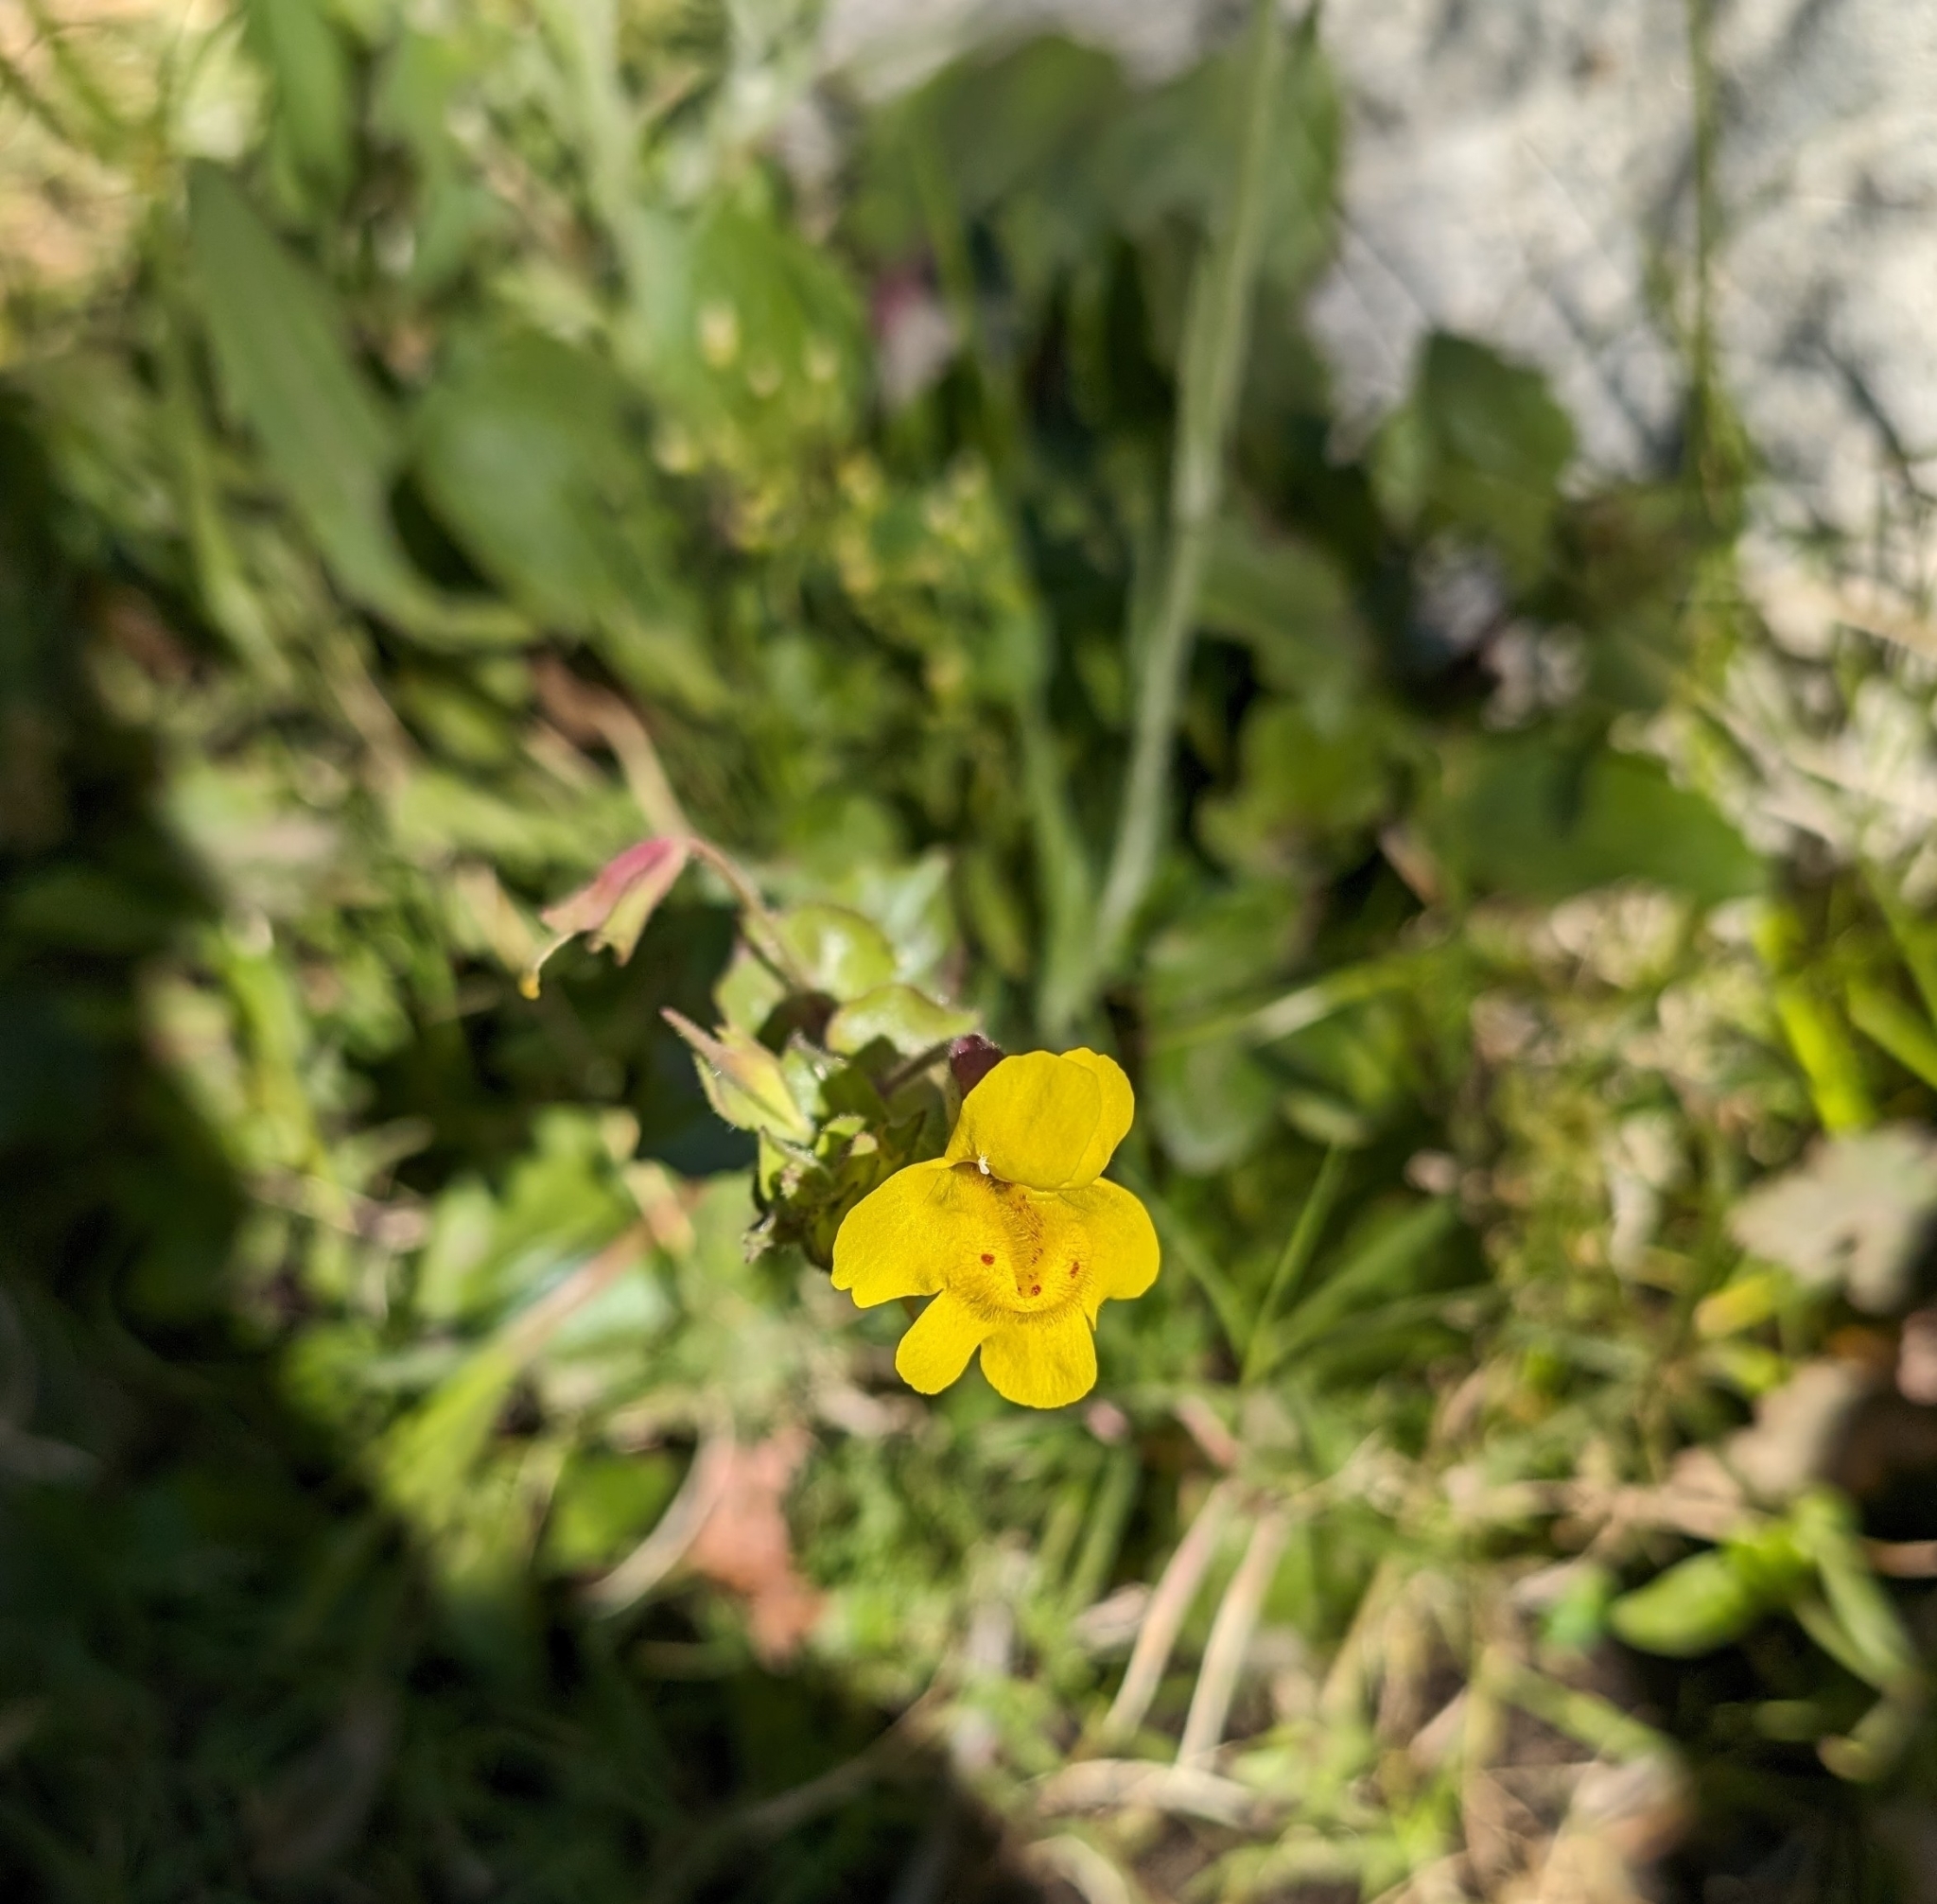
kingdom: Plantae
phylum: Tracheophyta
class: Magnoliopsida
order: Lamiales
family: Phrymaceae
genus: Erythranthe
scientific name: Erythranthe guttata
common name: Monkeyflower
